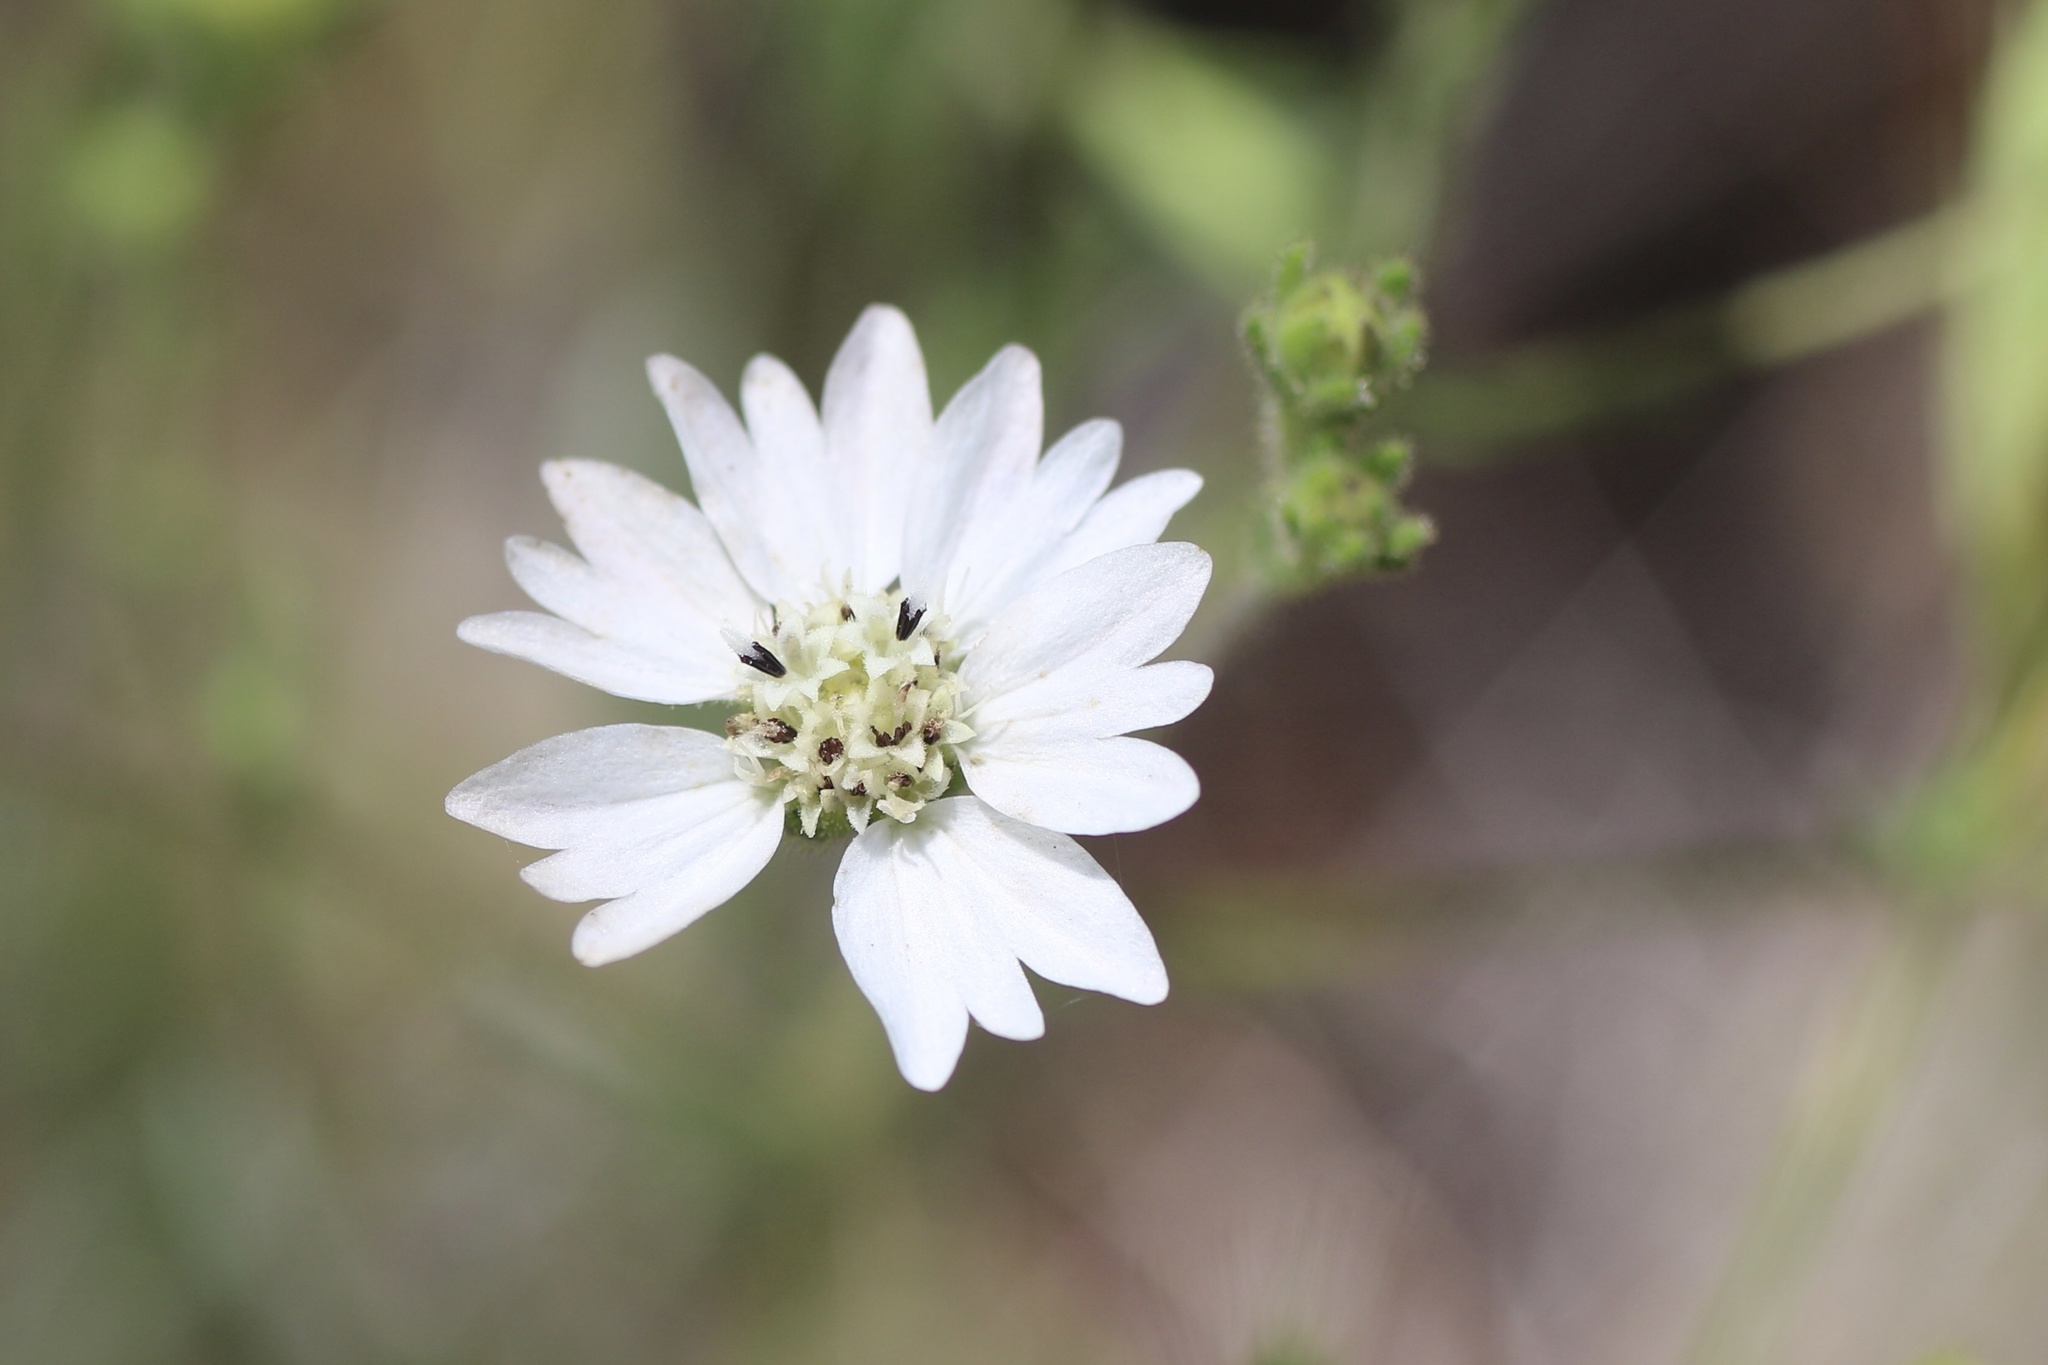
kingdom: Plantae
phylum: Tracheophyta
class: Magnoliopsida
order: Asterales
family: Asteraceae
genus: Hemizonia
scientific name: Hemizonia congesta
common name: Hayfield tarweed
